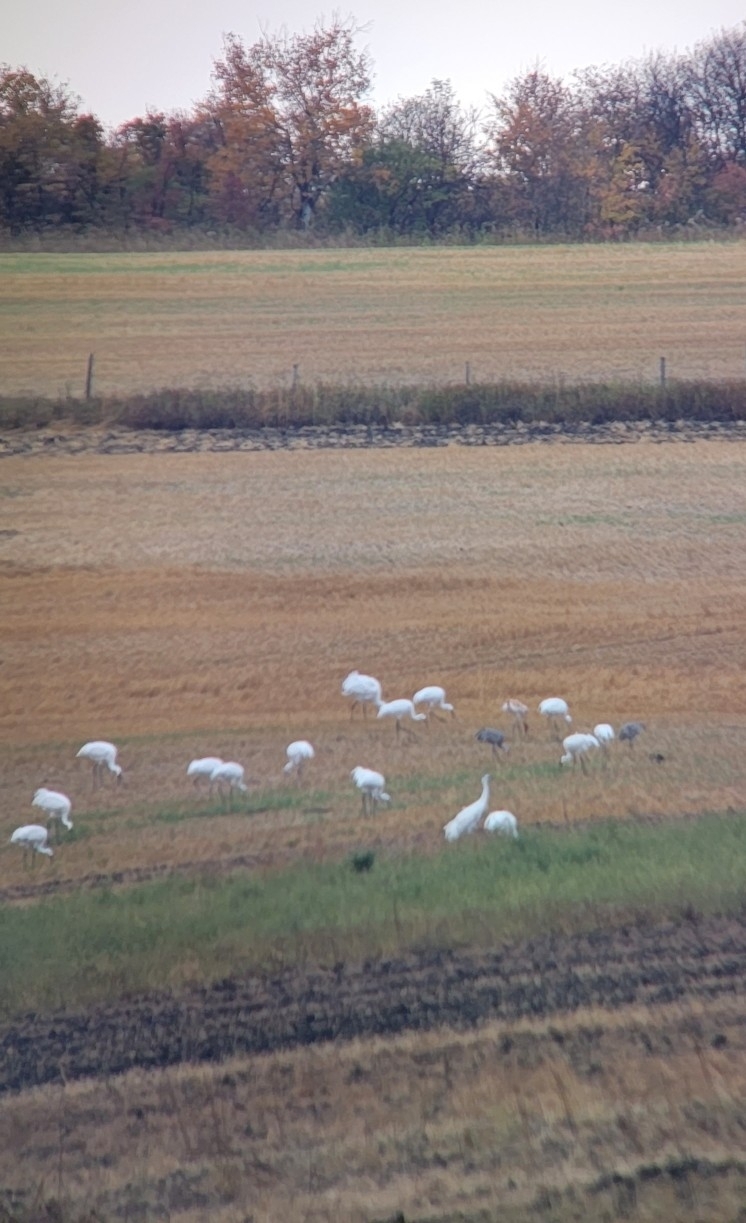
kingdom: Animalia
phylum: Chordata
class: Aves
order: Gruiformes
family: Gruidae
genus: Grus
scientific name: Grus americana
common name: Whooping crane
